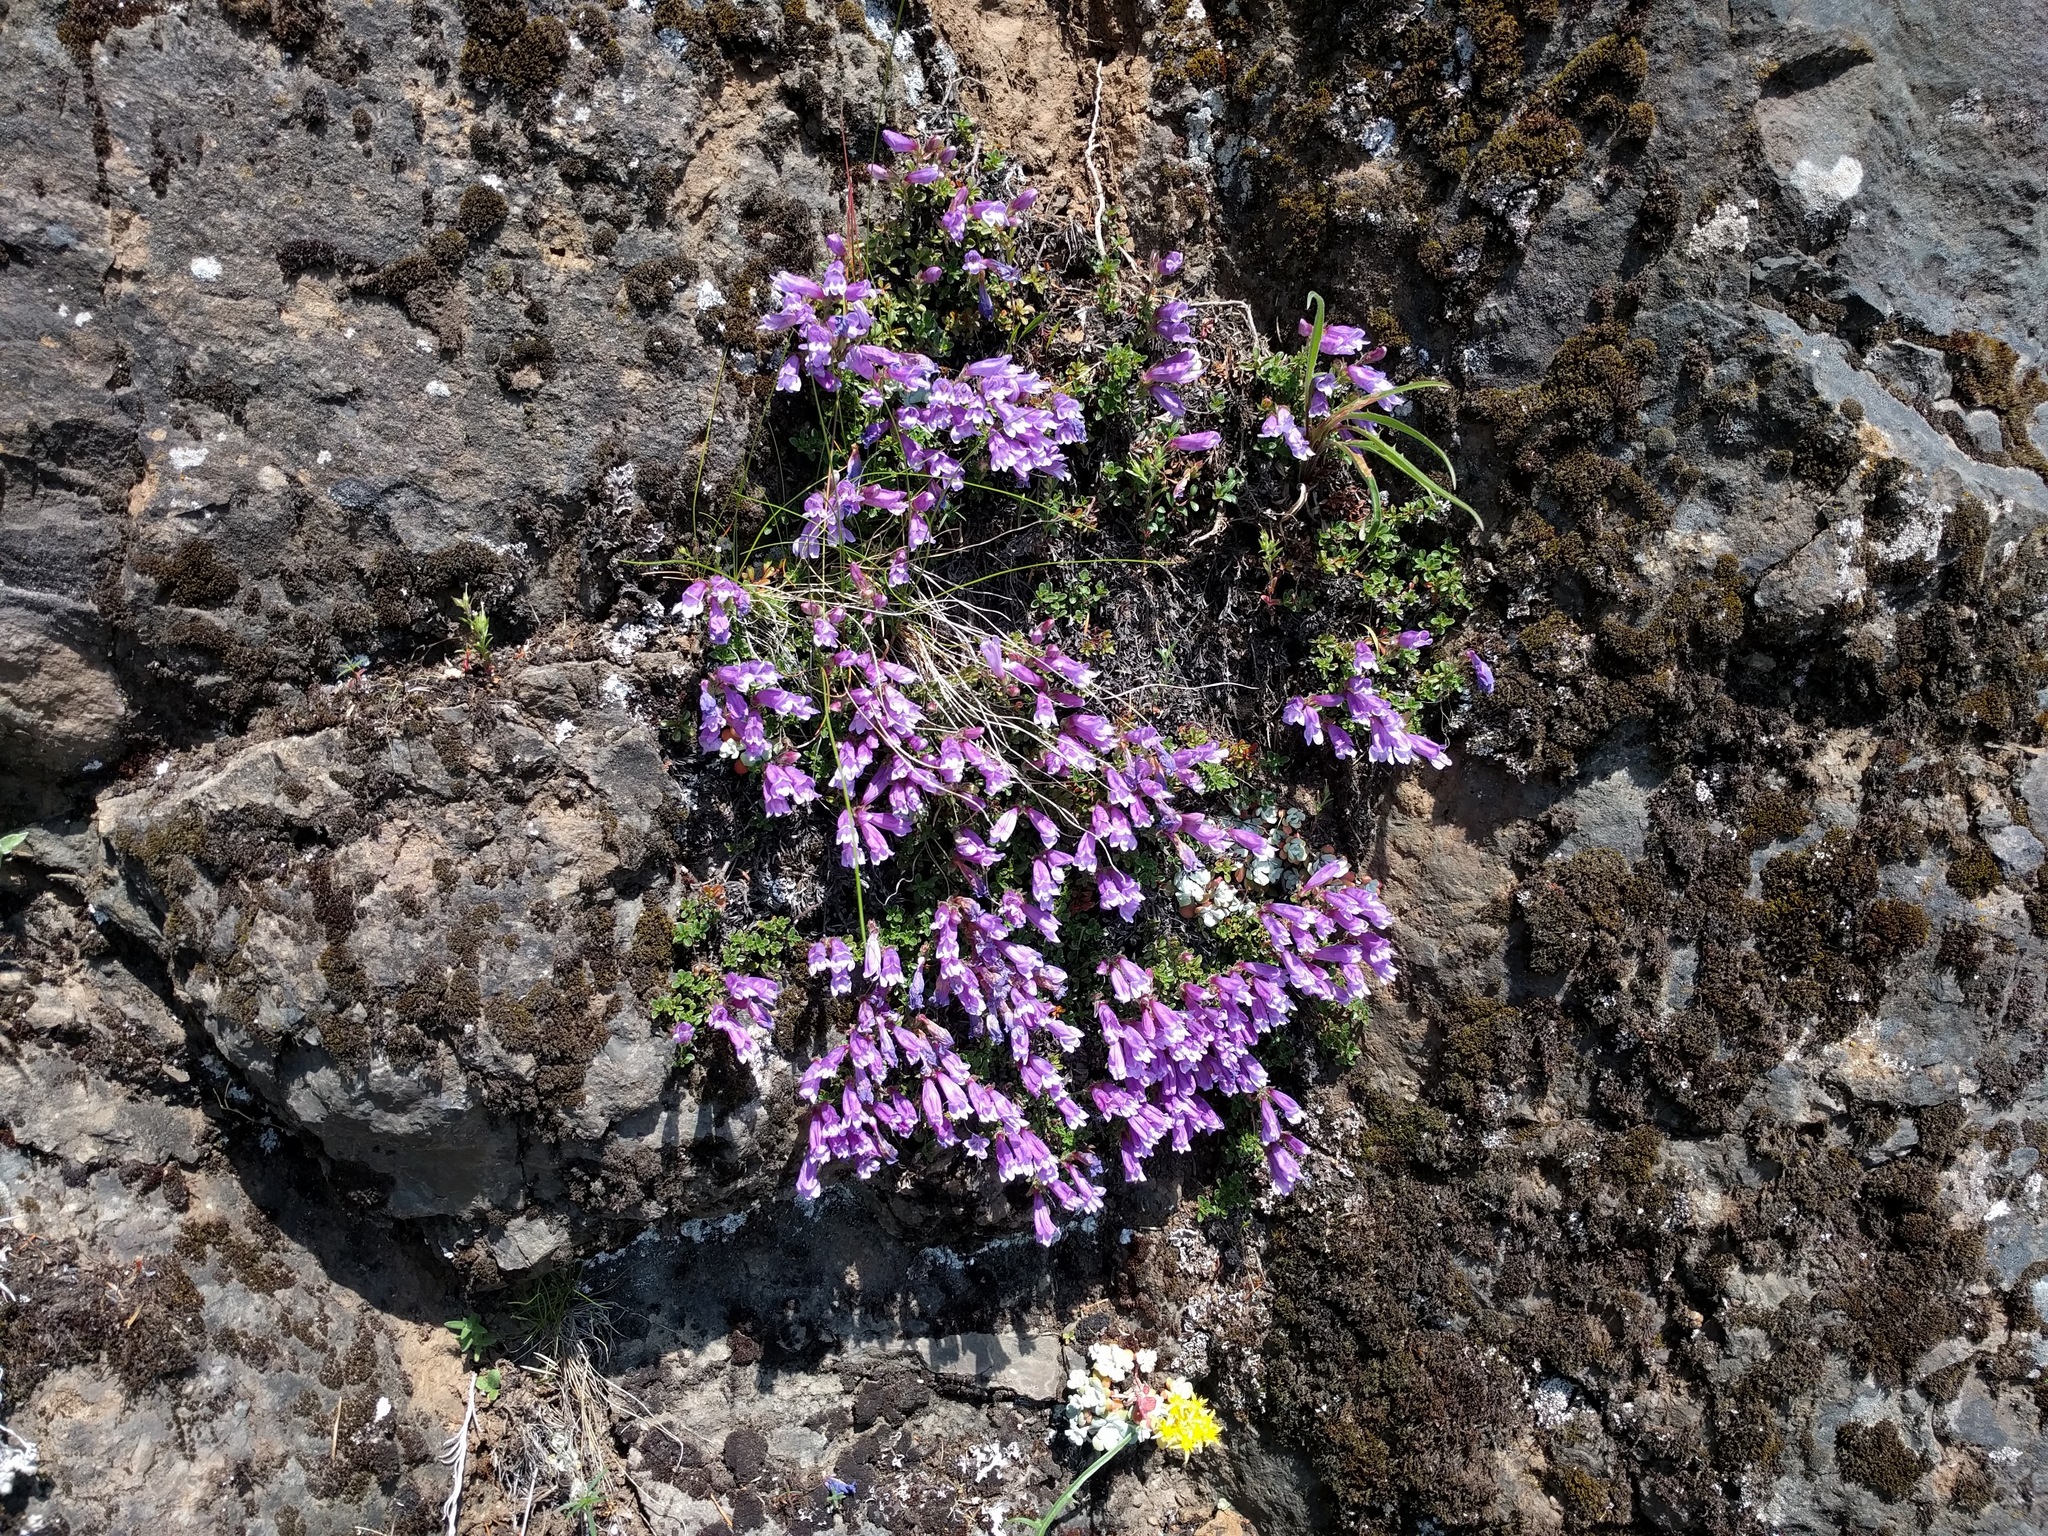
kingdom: Plantae
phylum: Tracheophyta
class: Magnoliopsida
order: Lamiales
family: Plantaginaceae
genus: Penstemon
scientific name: Penstemon davidsonii
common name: Davidson's penstemon
